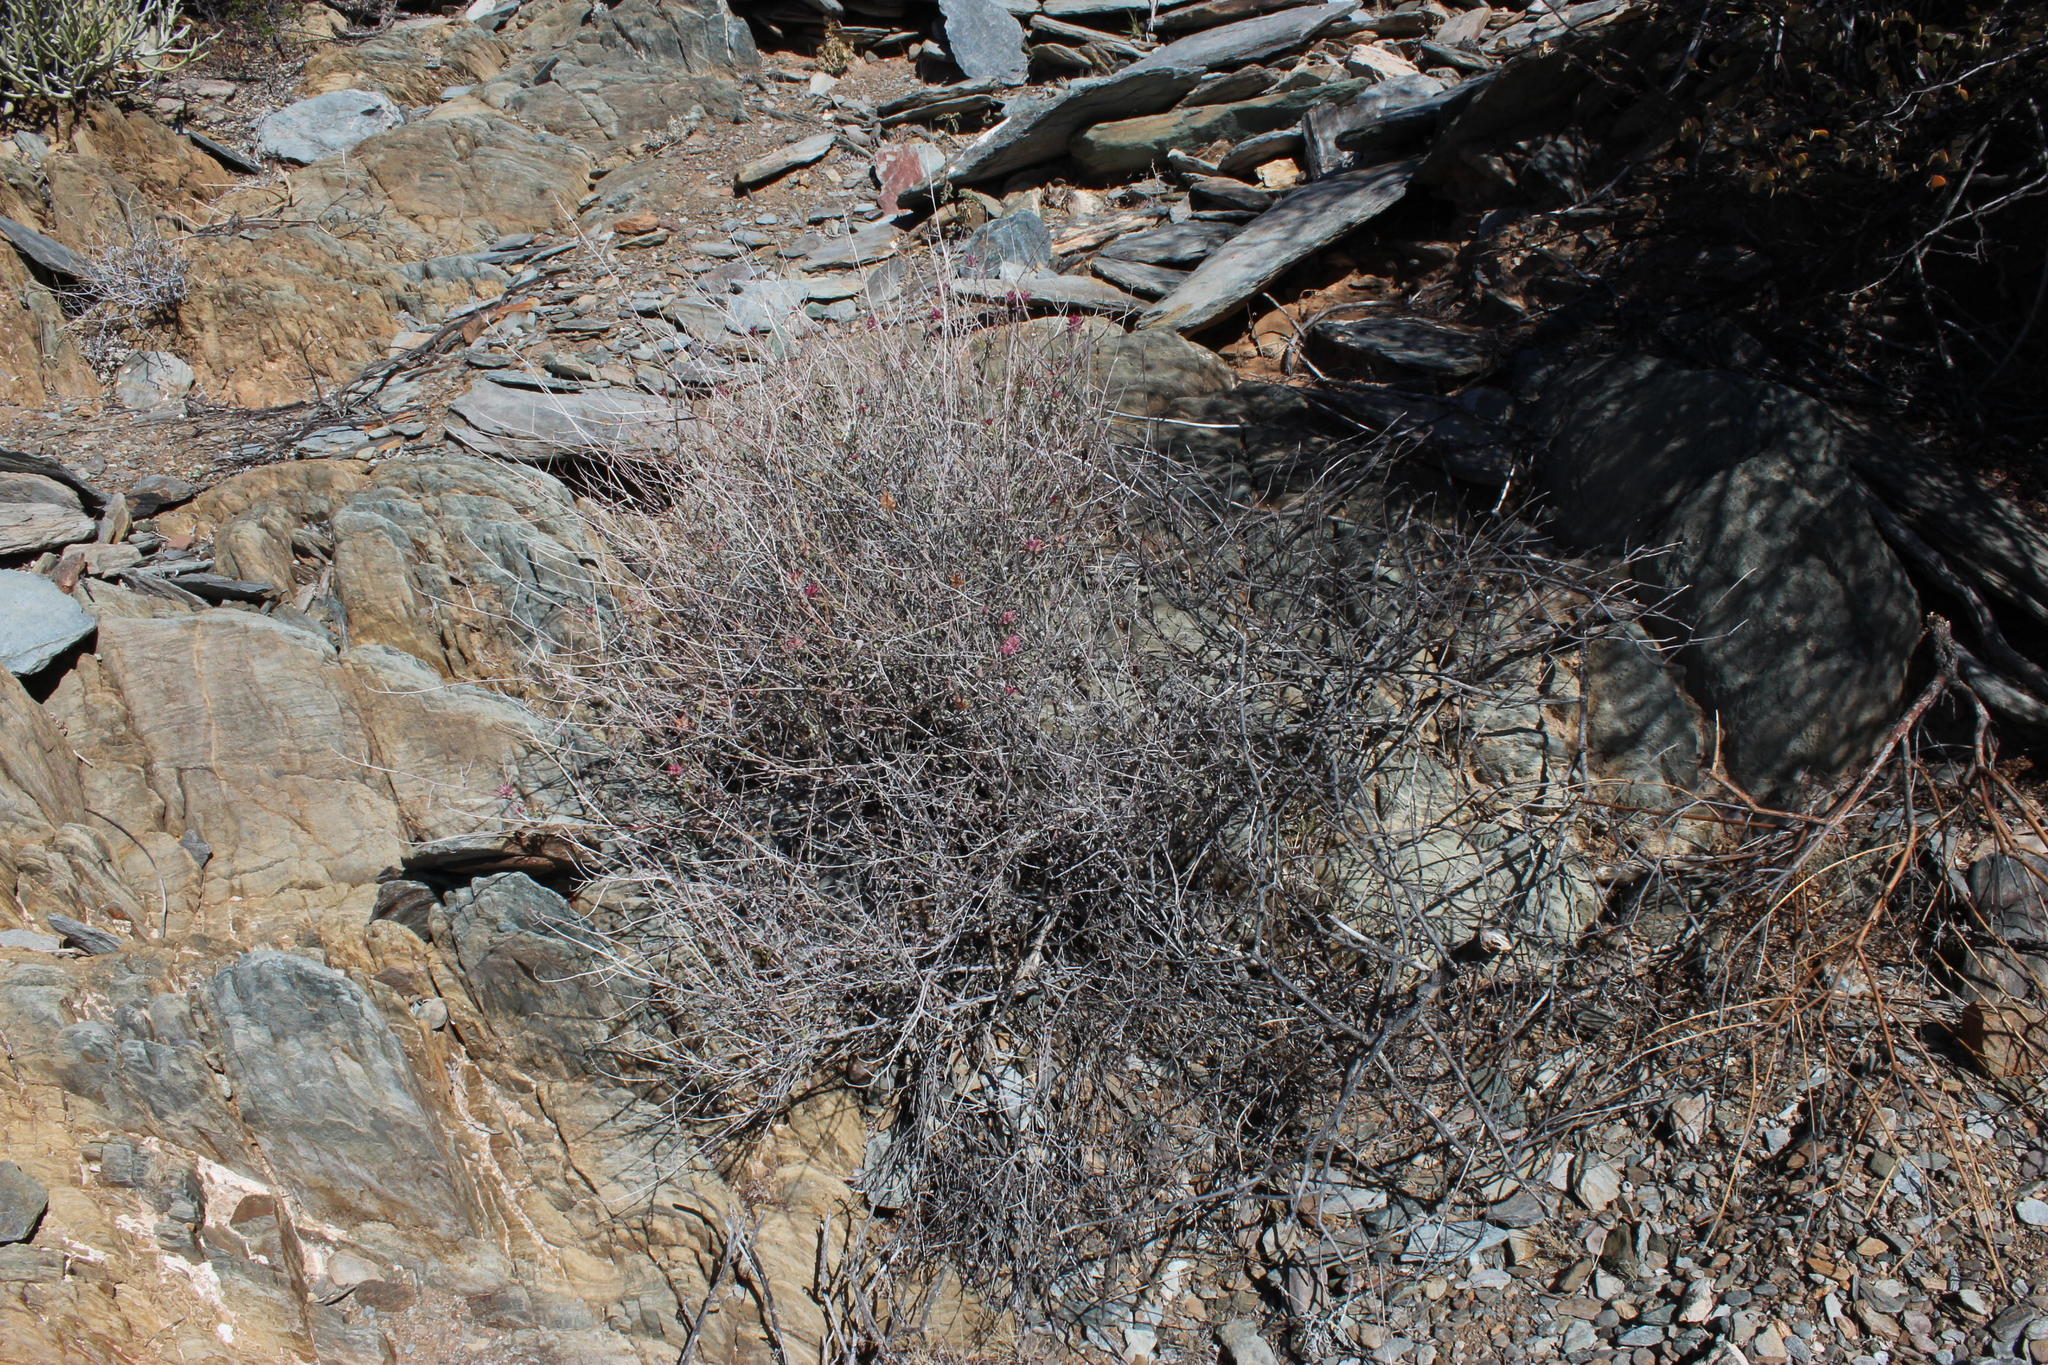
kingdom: Plantae
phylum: Tracheophyta
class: Magnoliopsida
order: Caryophyllales
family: Plumbaginaceae
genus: Dyerophytum
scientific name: Dyerophytum africanum
